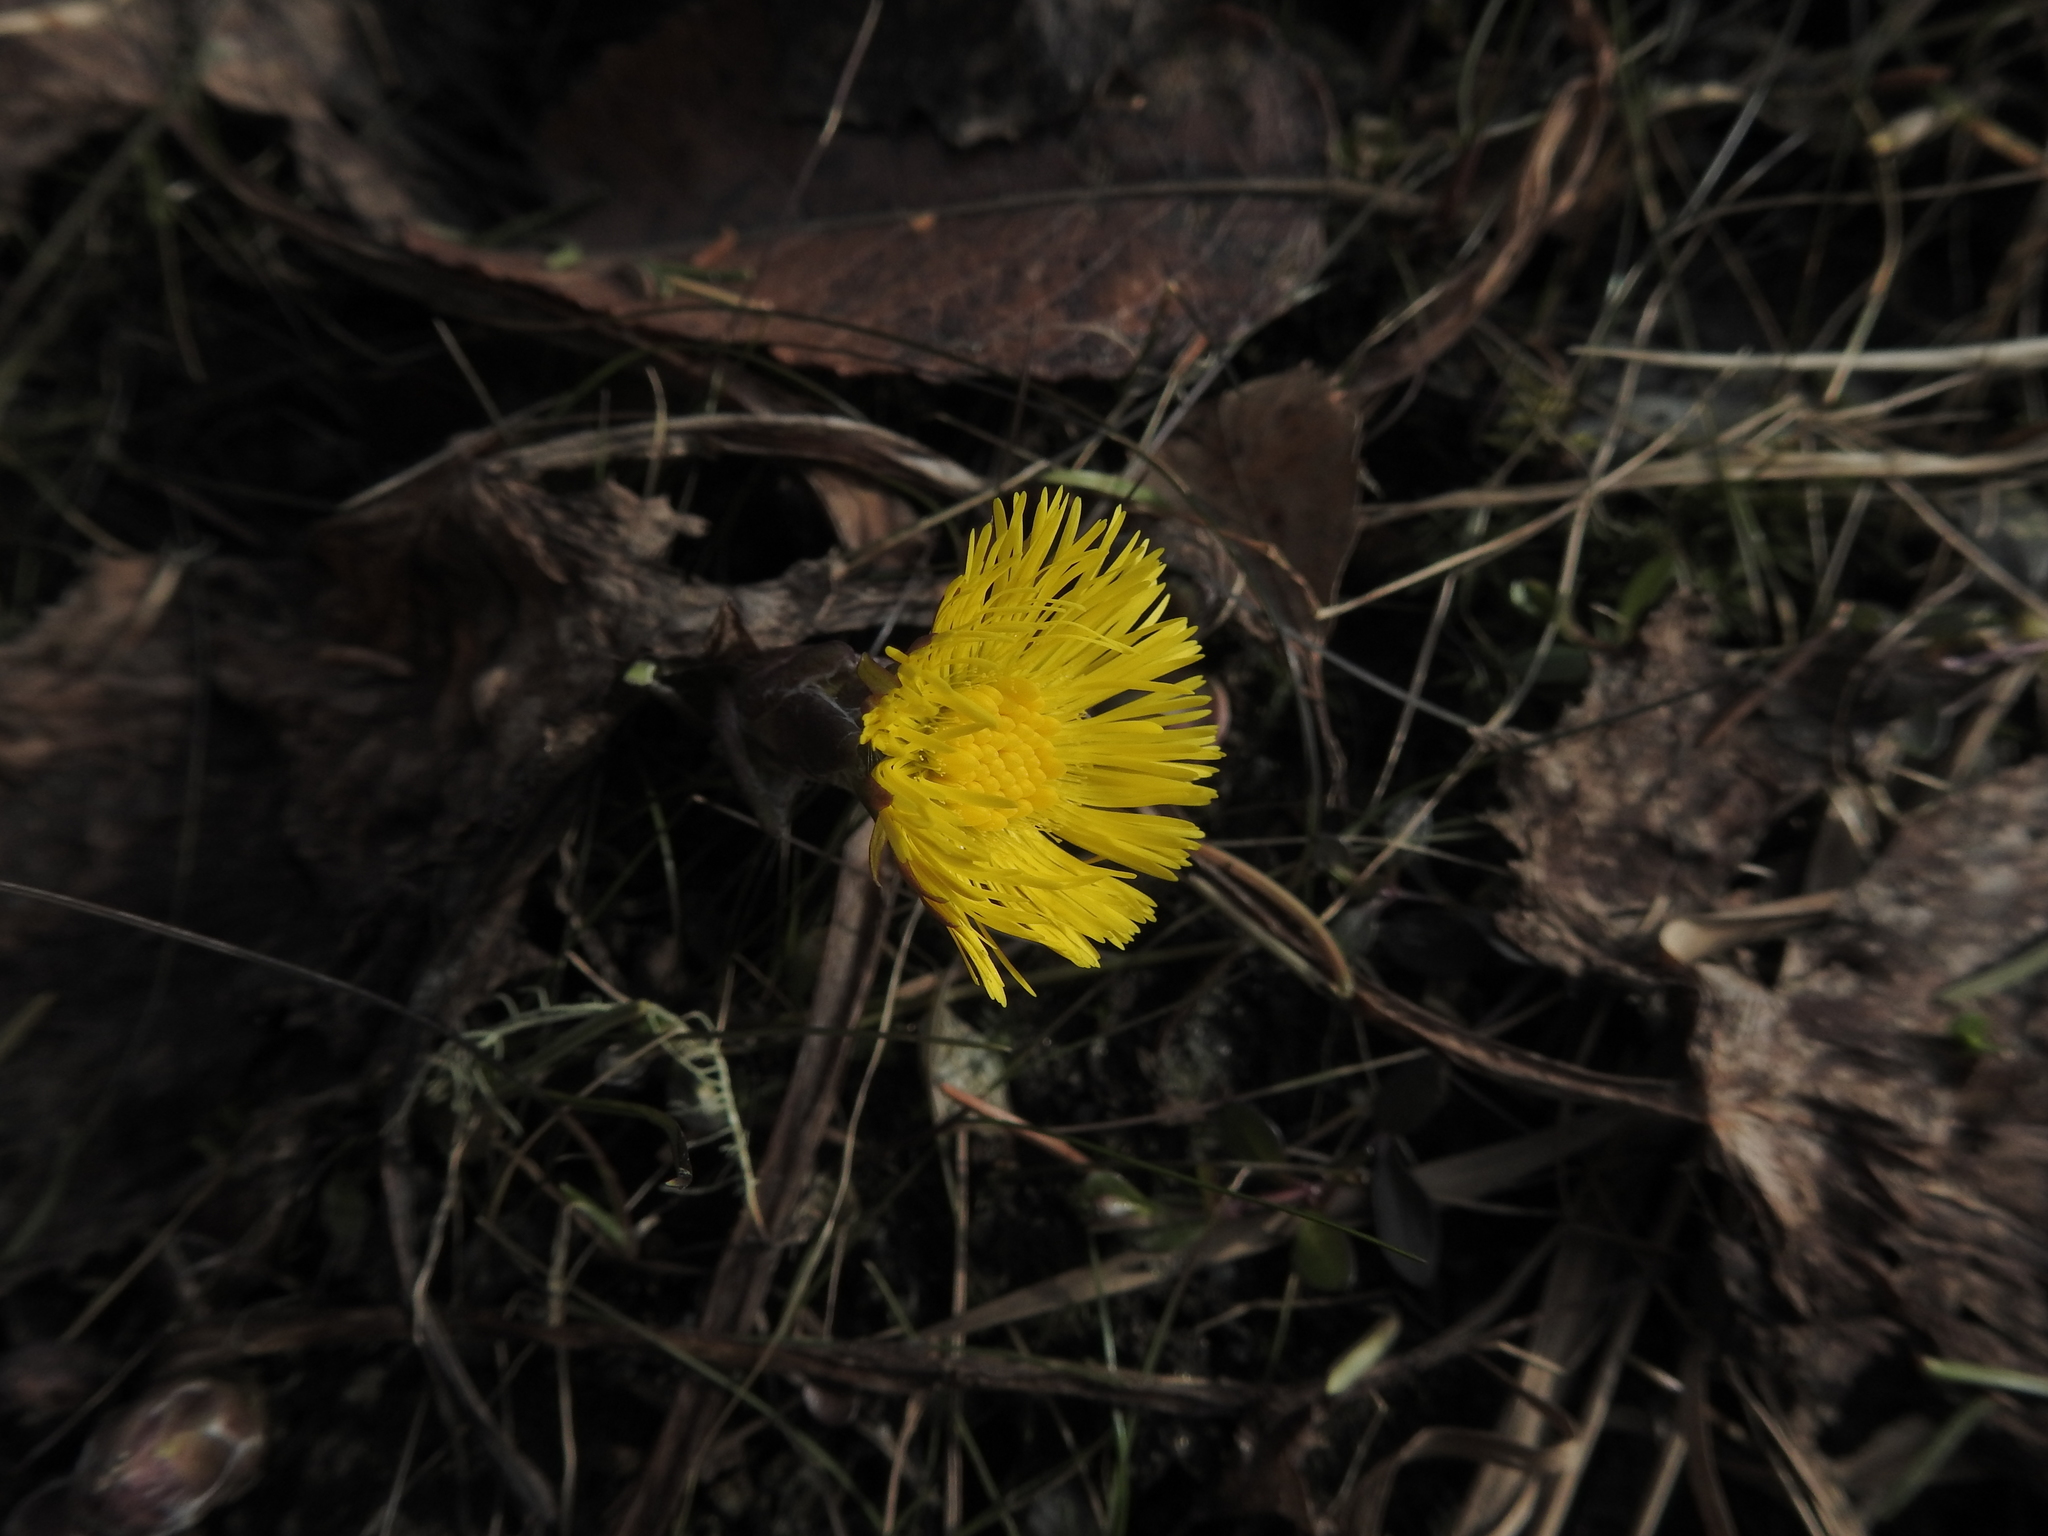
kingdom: Plantae
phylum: Tracheophyta
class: Magnoliopsida
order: Asterales
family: Asteraceae
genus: Tussilago
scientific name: Tussilago farfara
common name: Coltsfoot
